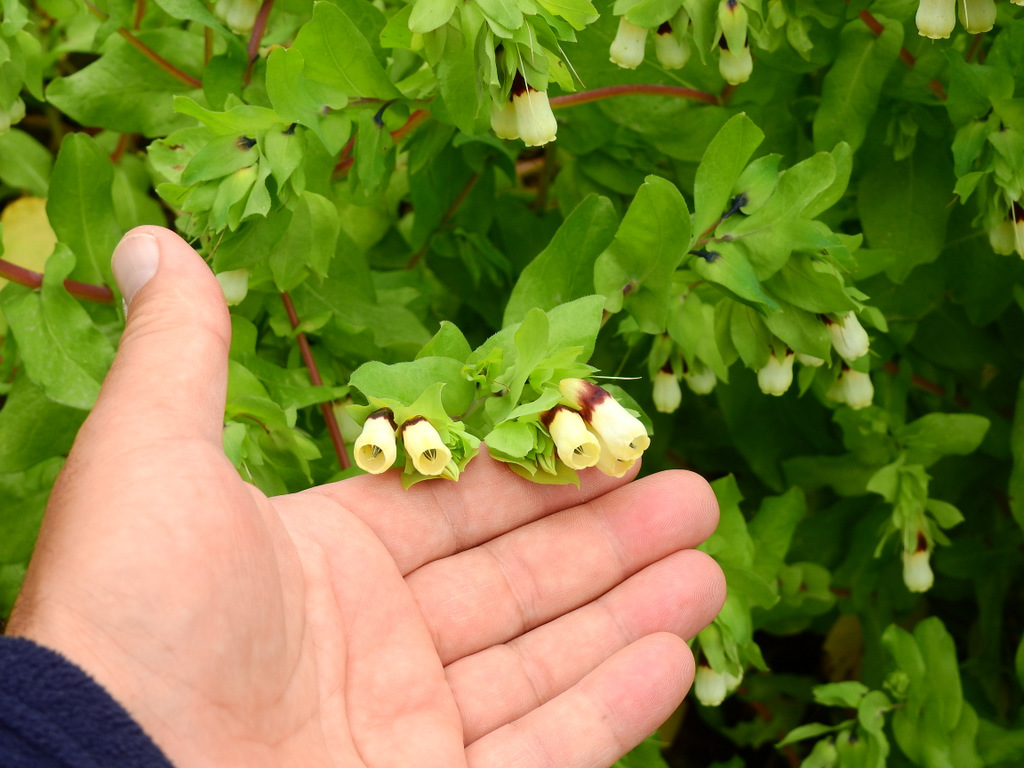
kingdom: Plantae
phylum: Tracheophyta
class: Magnoliopsida
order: Boraginales
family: Boraginaceae
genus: Cerinthe
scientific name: Cerinthe major
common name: Greater honeywort
